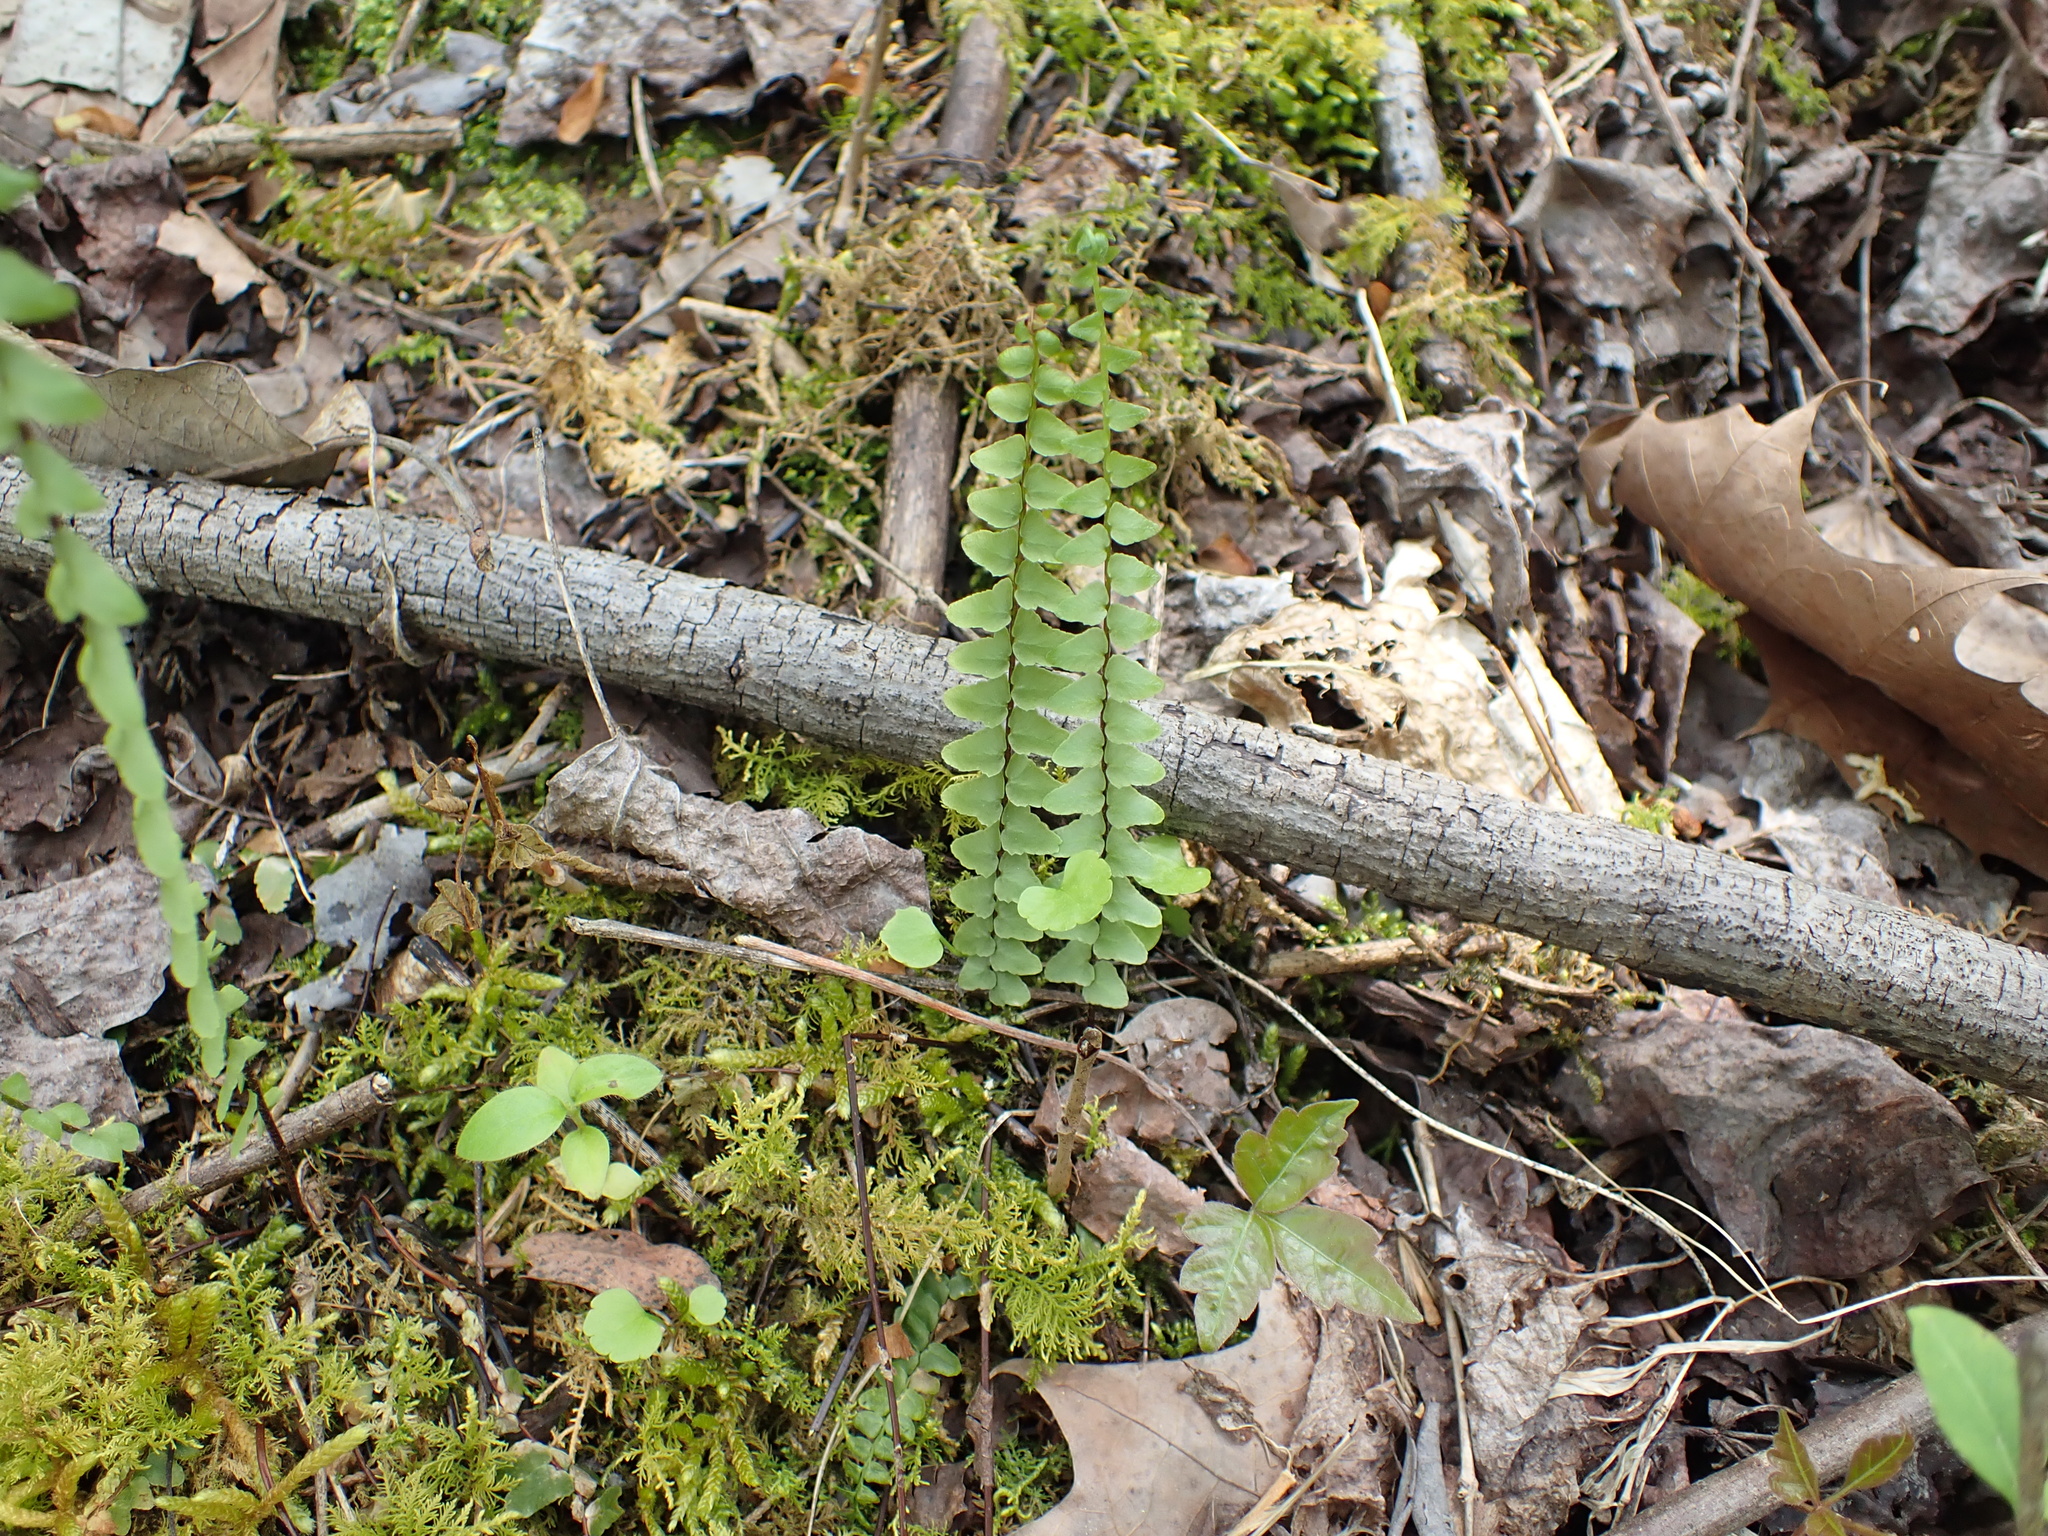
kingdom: Plantae
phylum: Tracheophyta
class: Polypodiopsida
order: Polypodiales
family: Aspleniaceae
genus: Asplenium
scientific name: Asplenium platyneuron
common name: Ebony spleenwort
